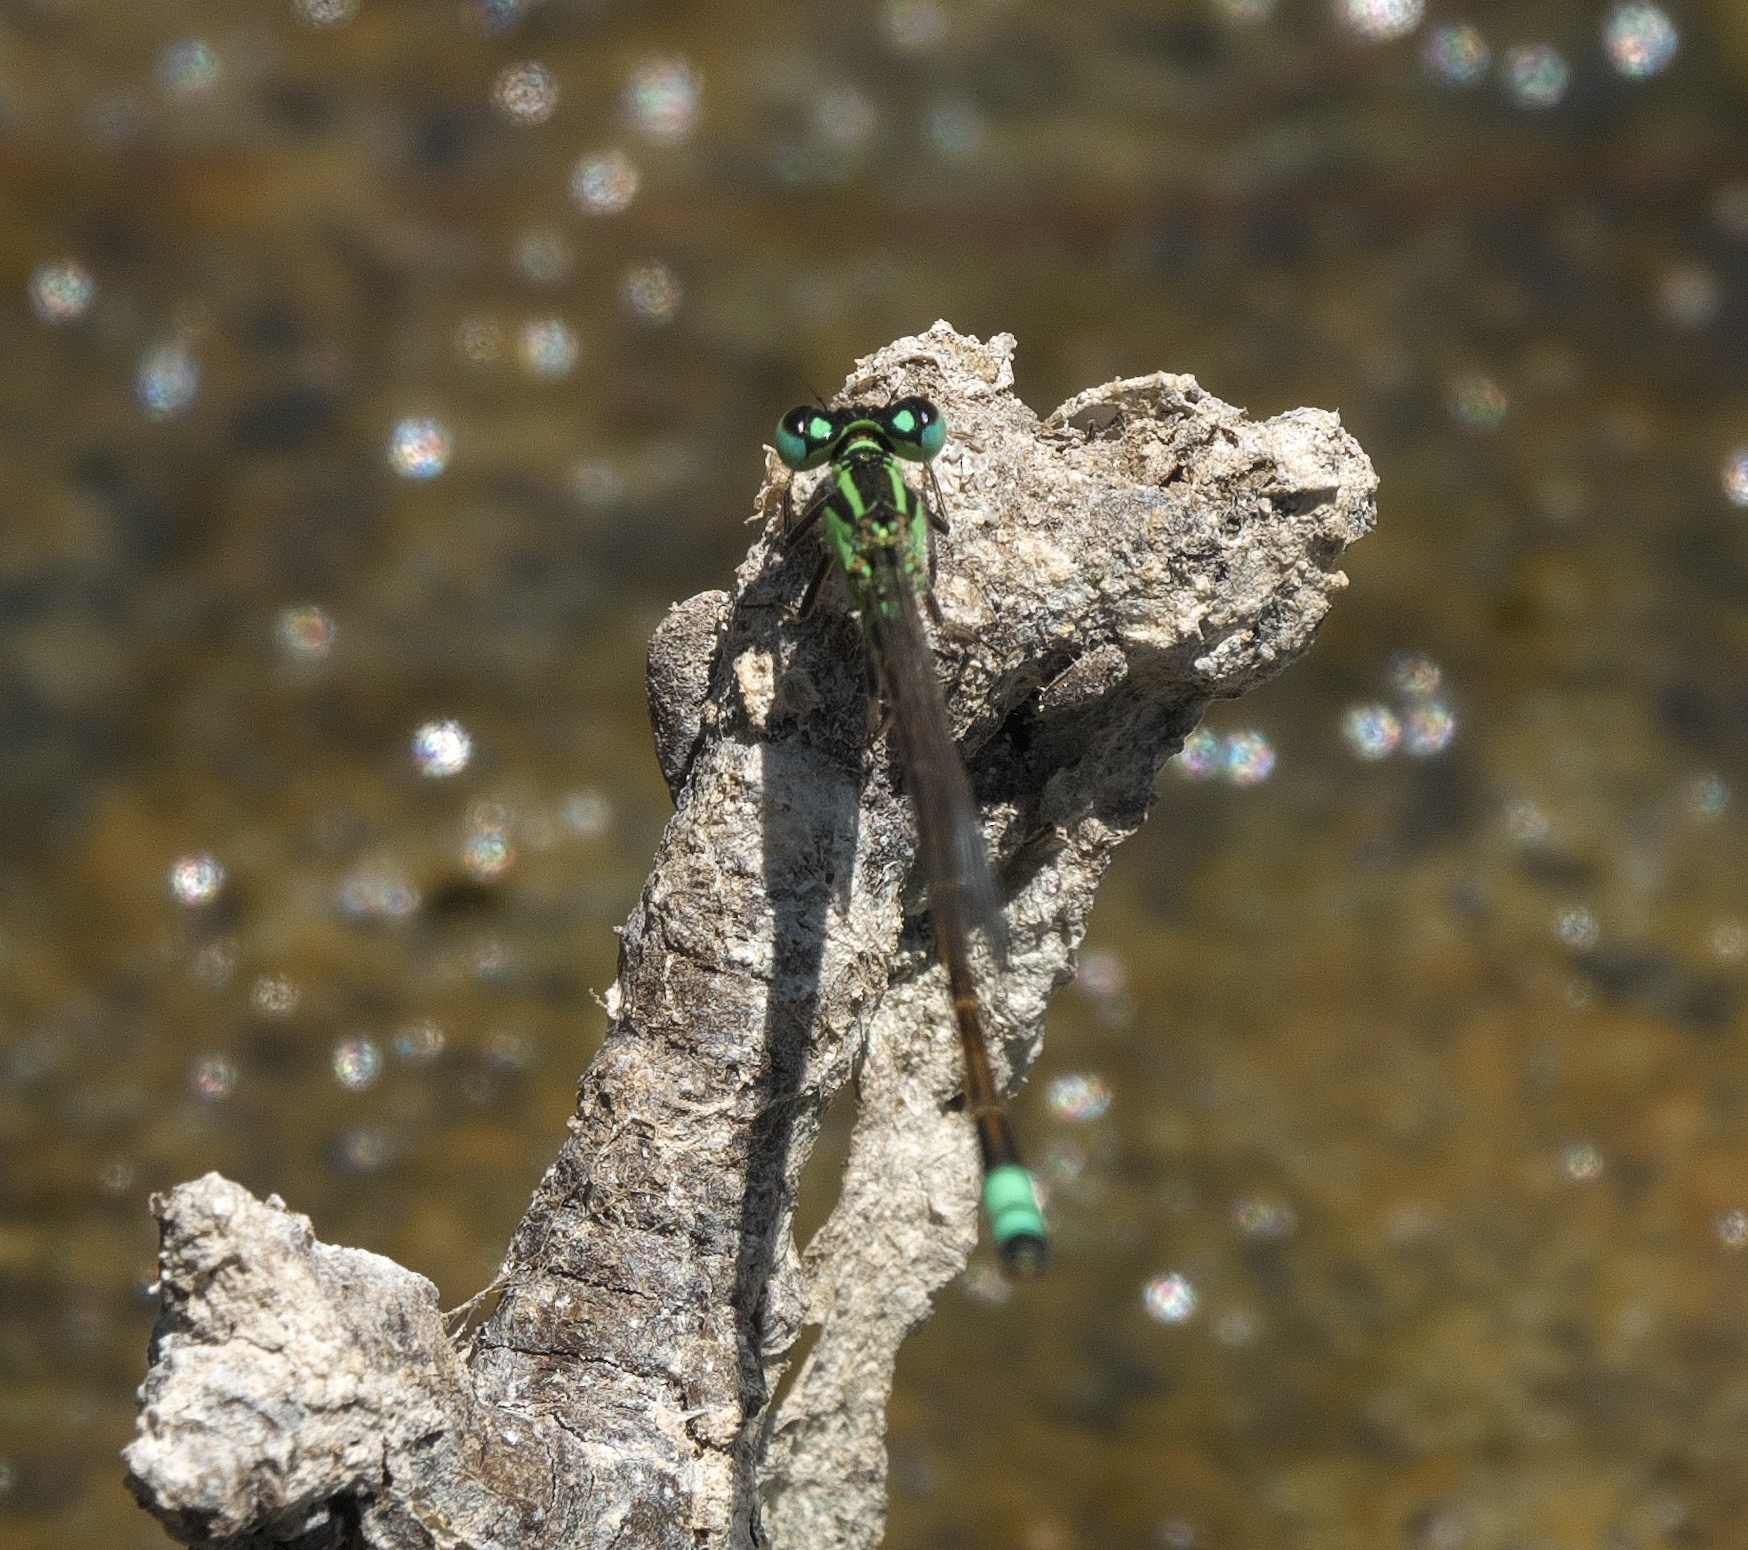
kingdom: Animalia
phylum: Arthropoda
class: Insecta
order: Odonata
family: Coenagrionidae
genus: Ischnura
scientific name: Ischnura heterosticta
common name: Common bluetail
